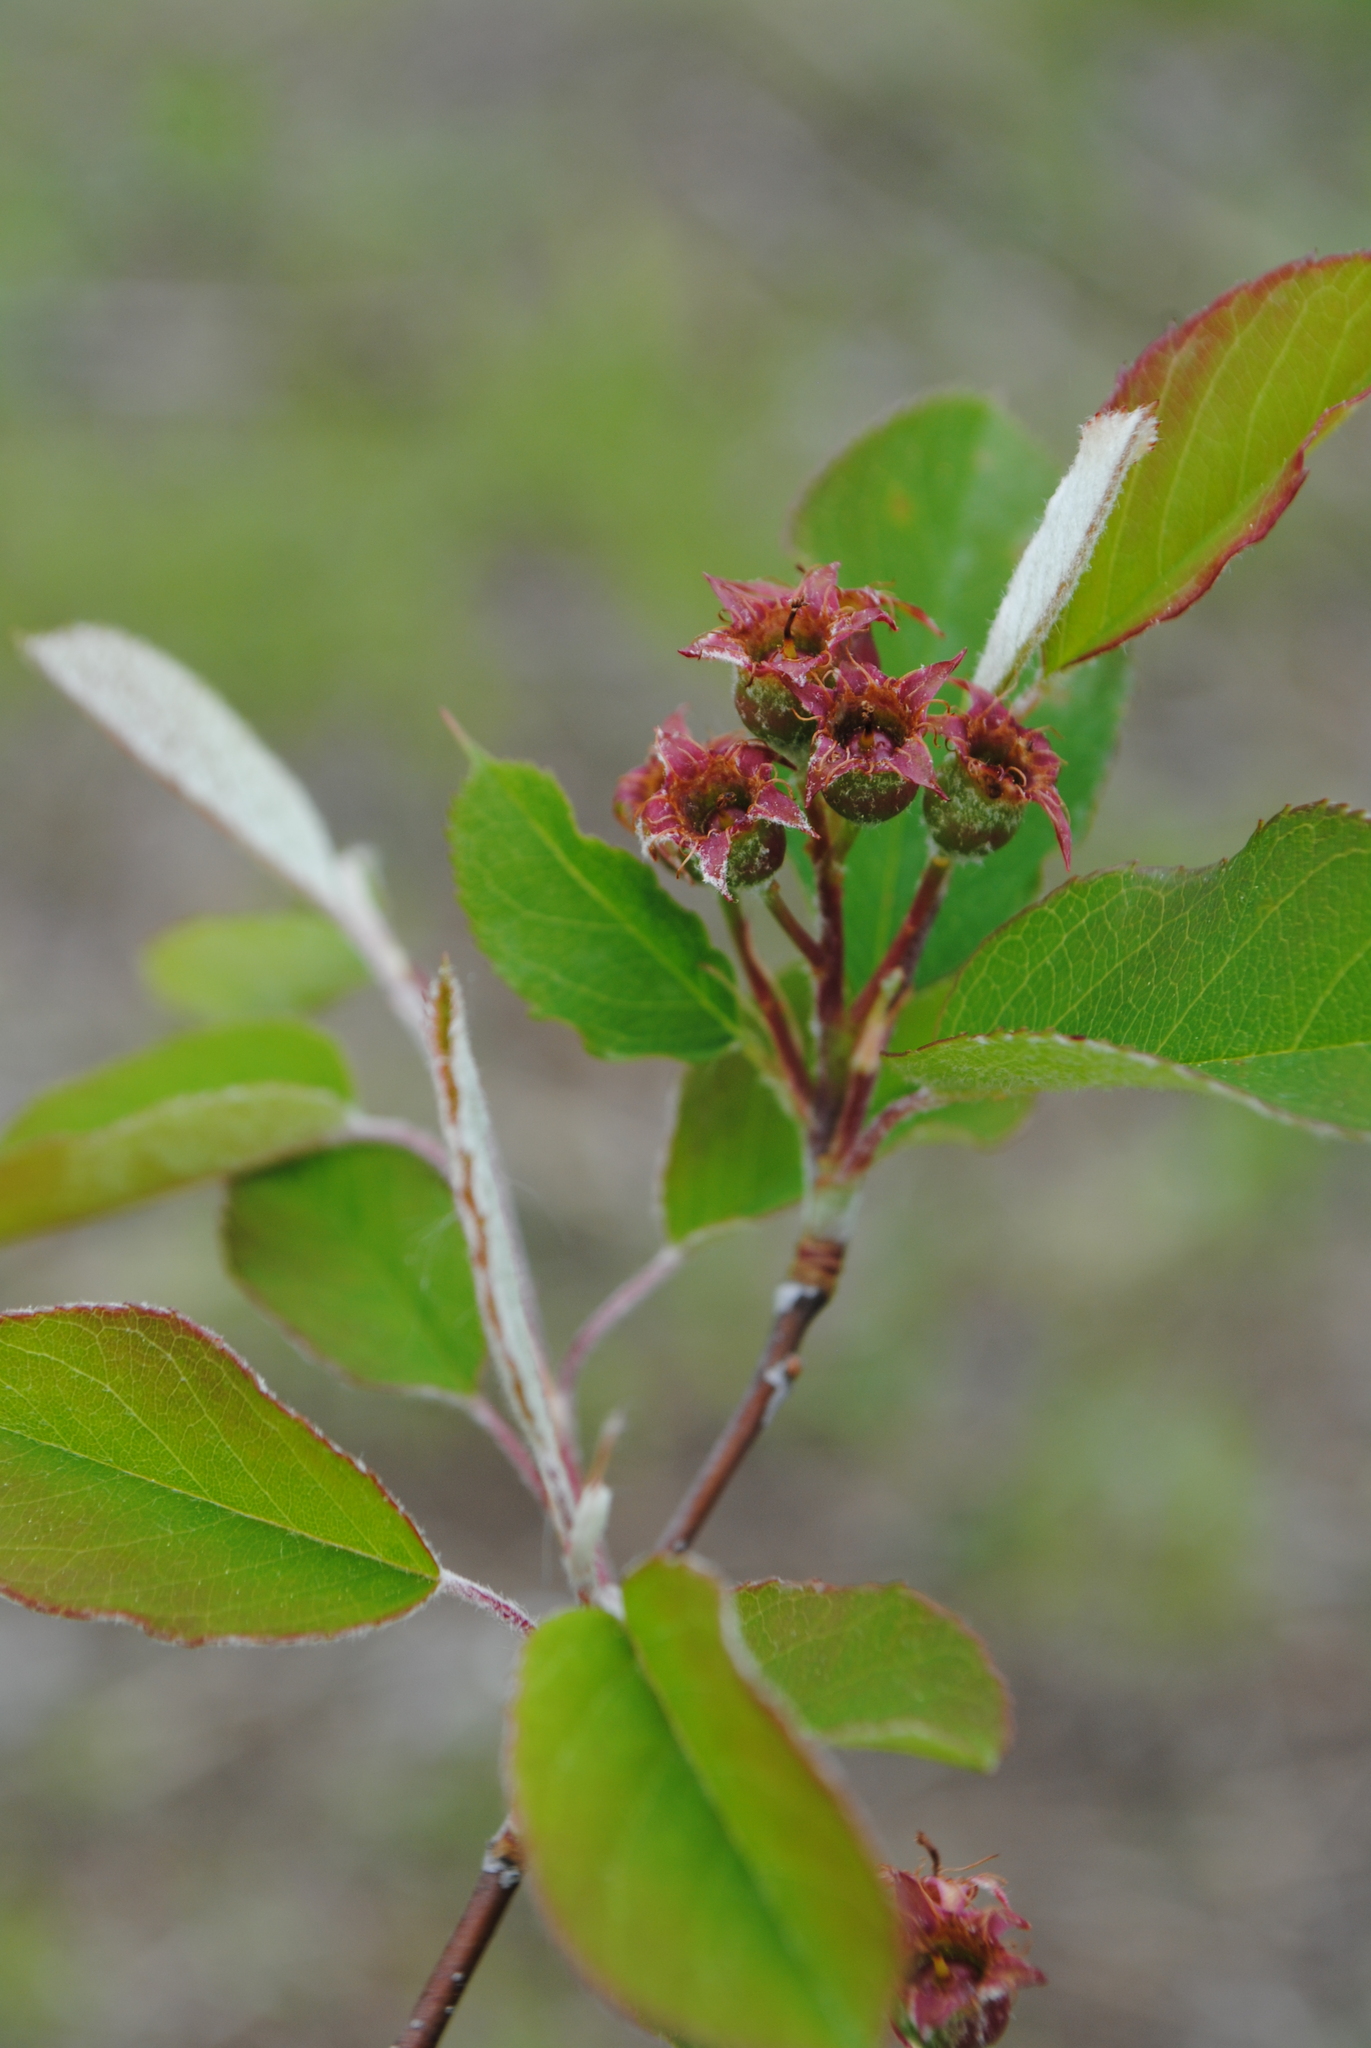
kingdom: Plantae
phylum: Tracheophyta
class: Magnoliopsida
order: Rosales
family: Rosaceae
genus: Amelanchier
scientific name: Amelanchier nantucketensis
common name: Nantucket shadbush
